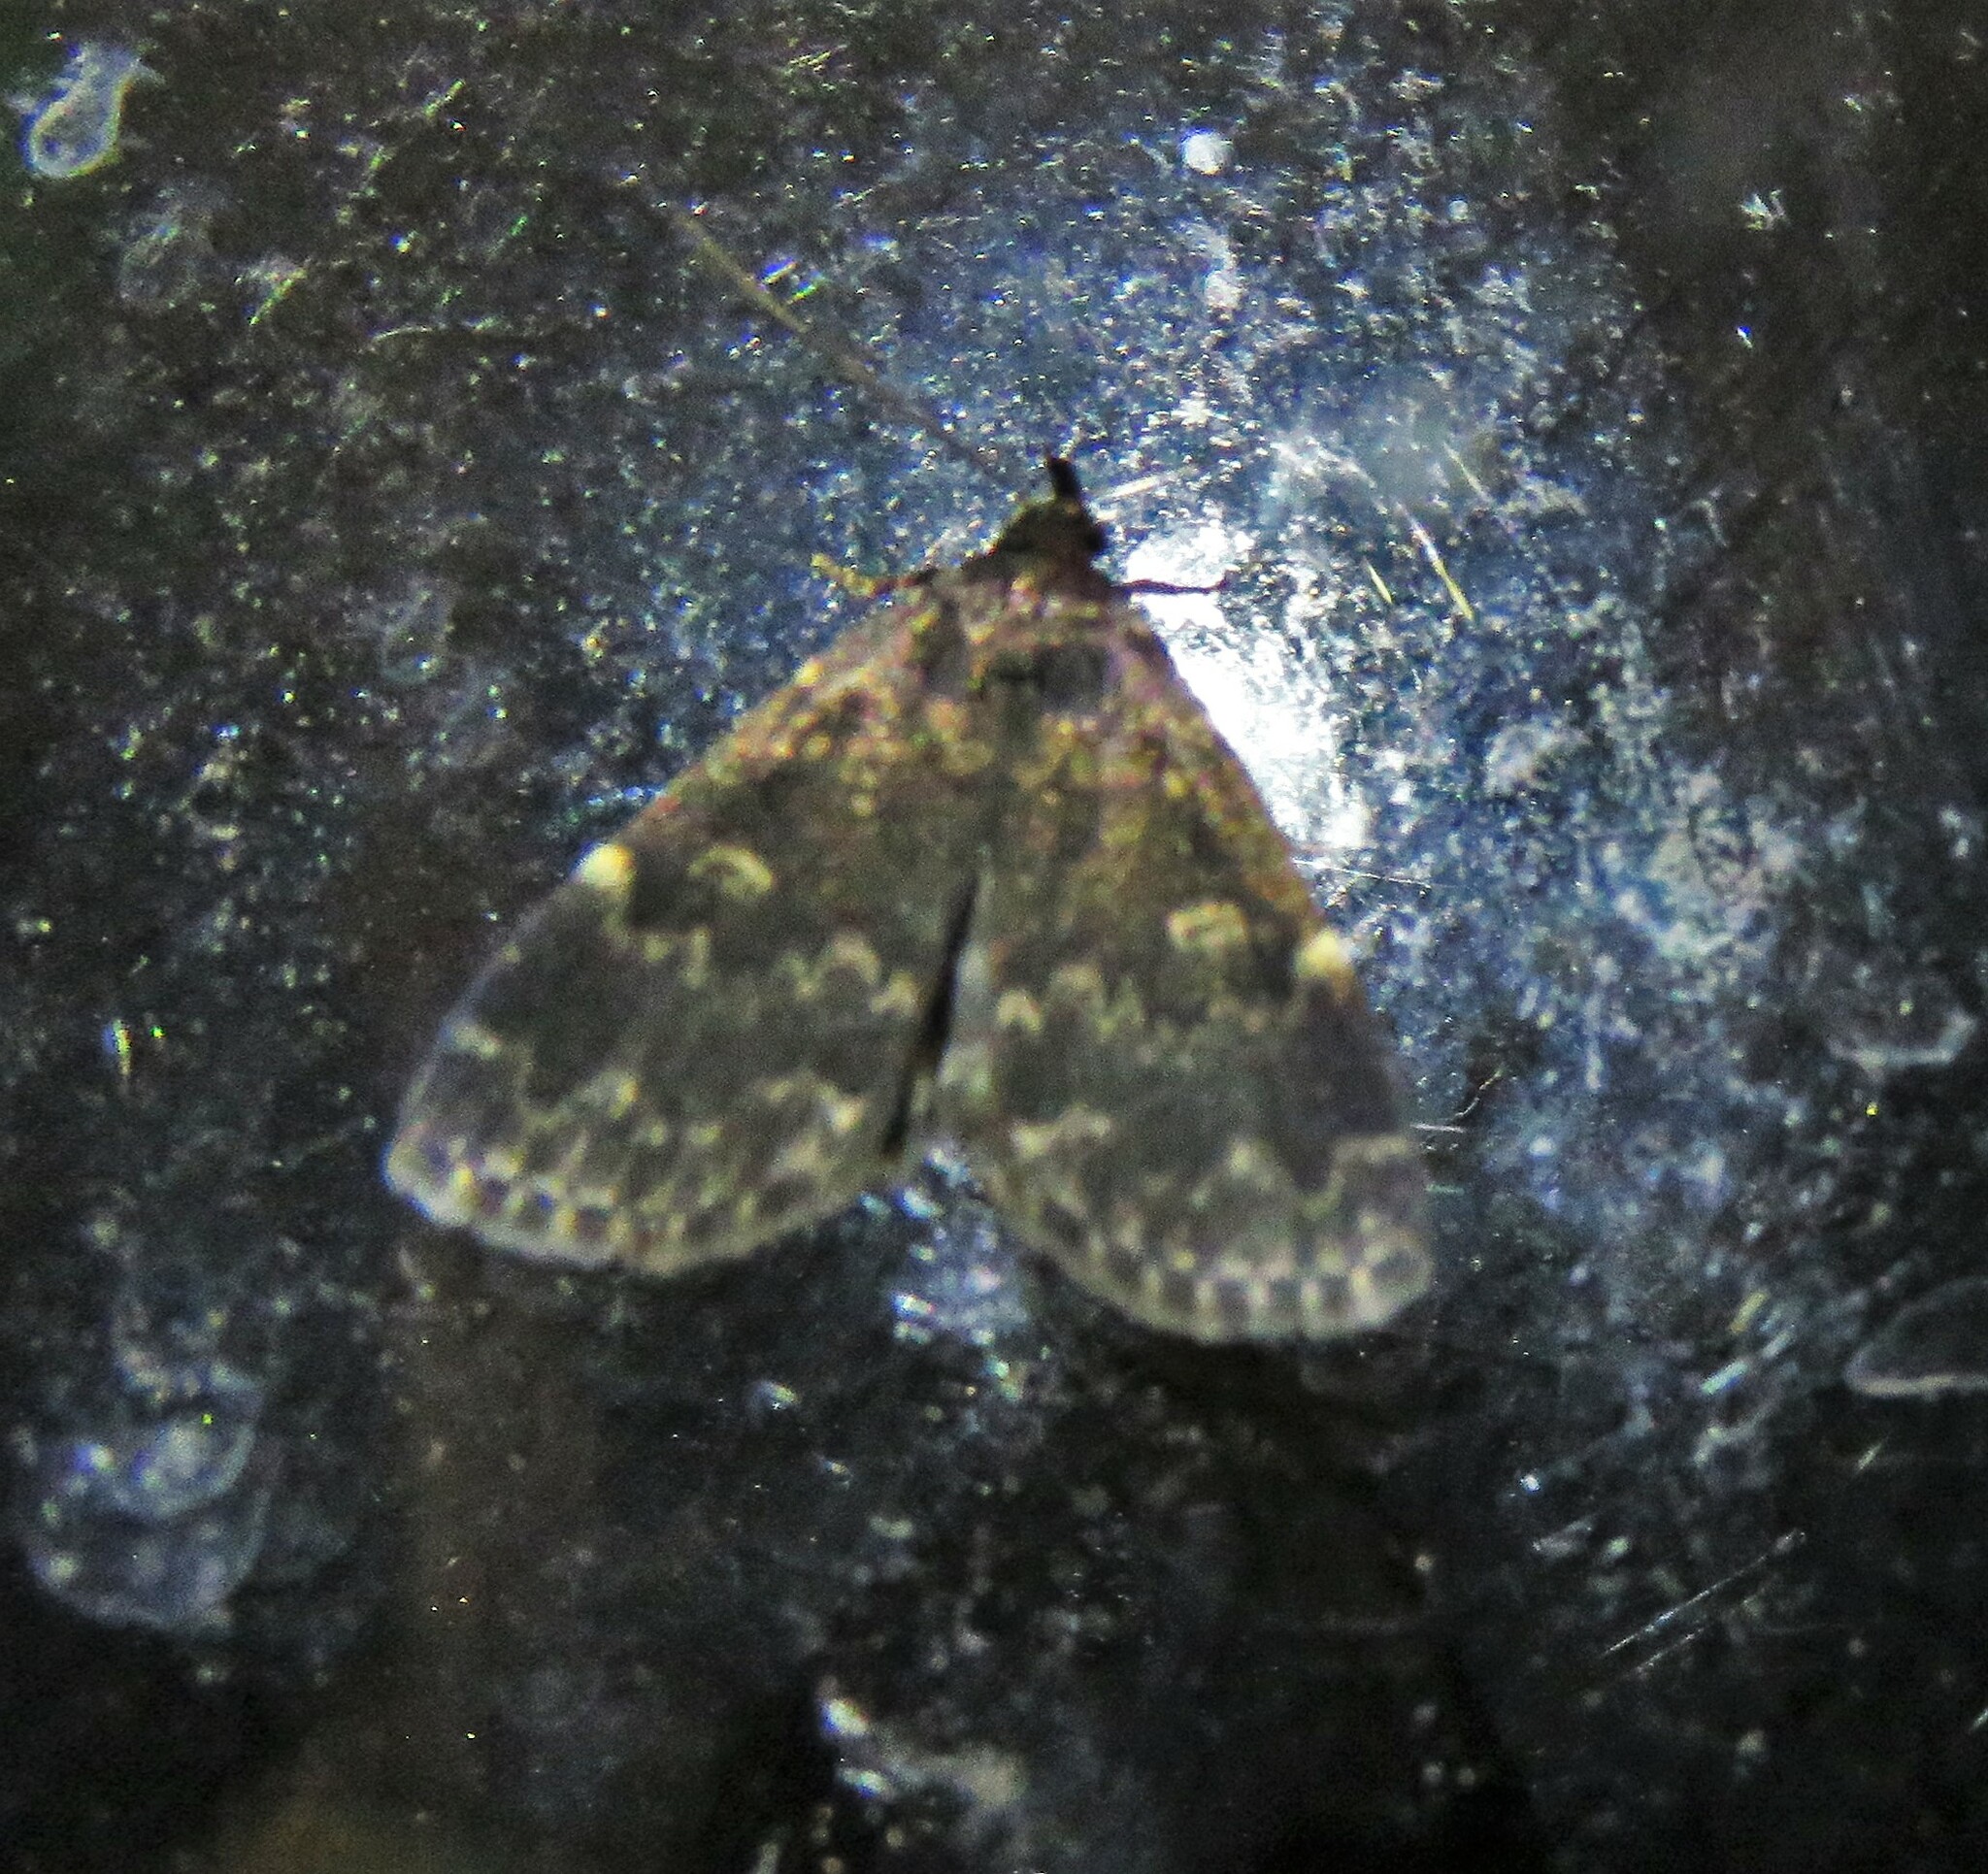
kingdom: Animalia
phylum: Arthropoda
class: Insecta
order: Lepidoptera
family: Erebidae
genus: Idia
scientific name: Idia lubricalis
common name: Twin-striped tabby
